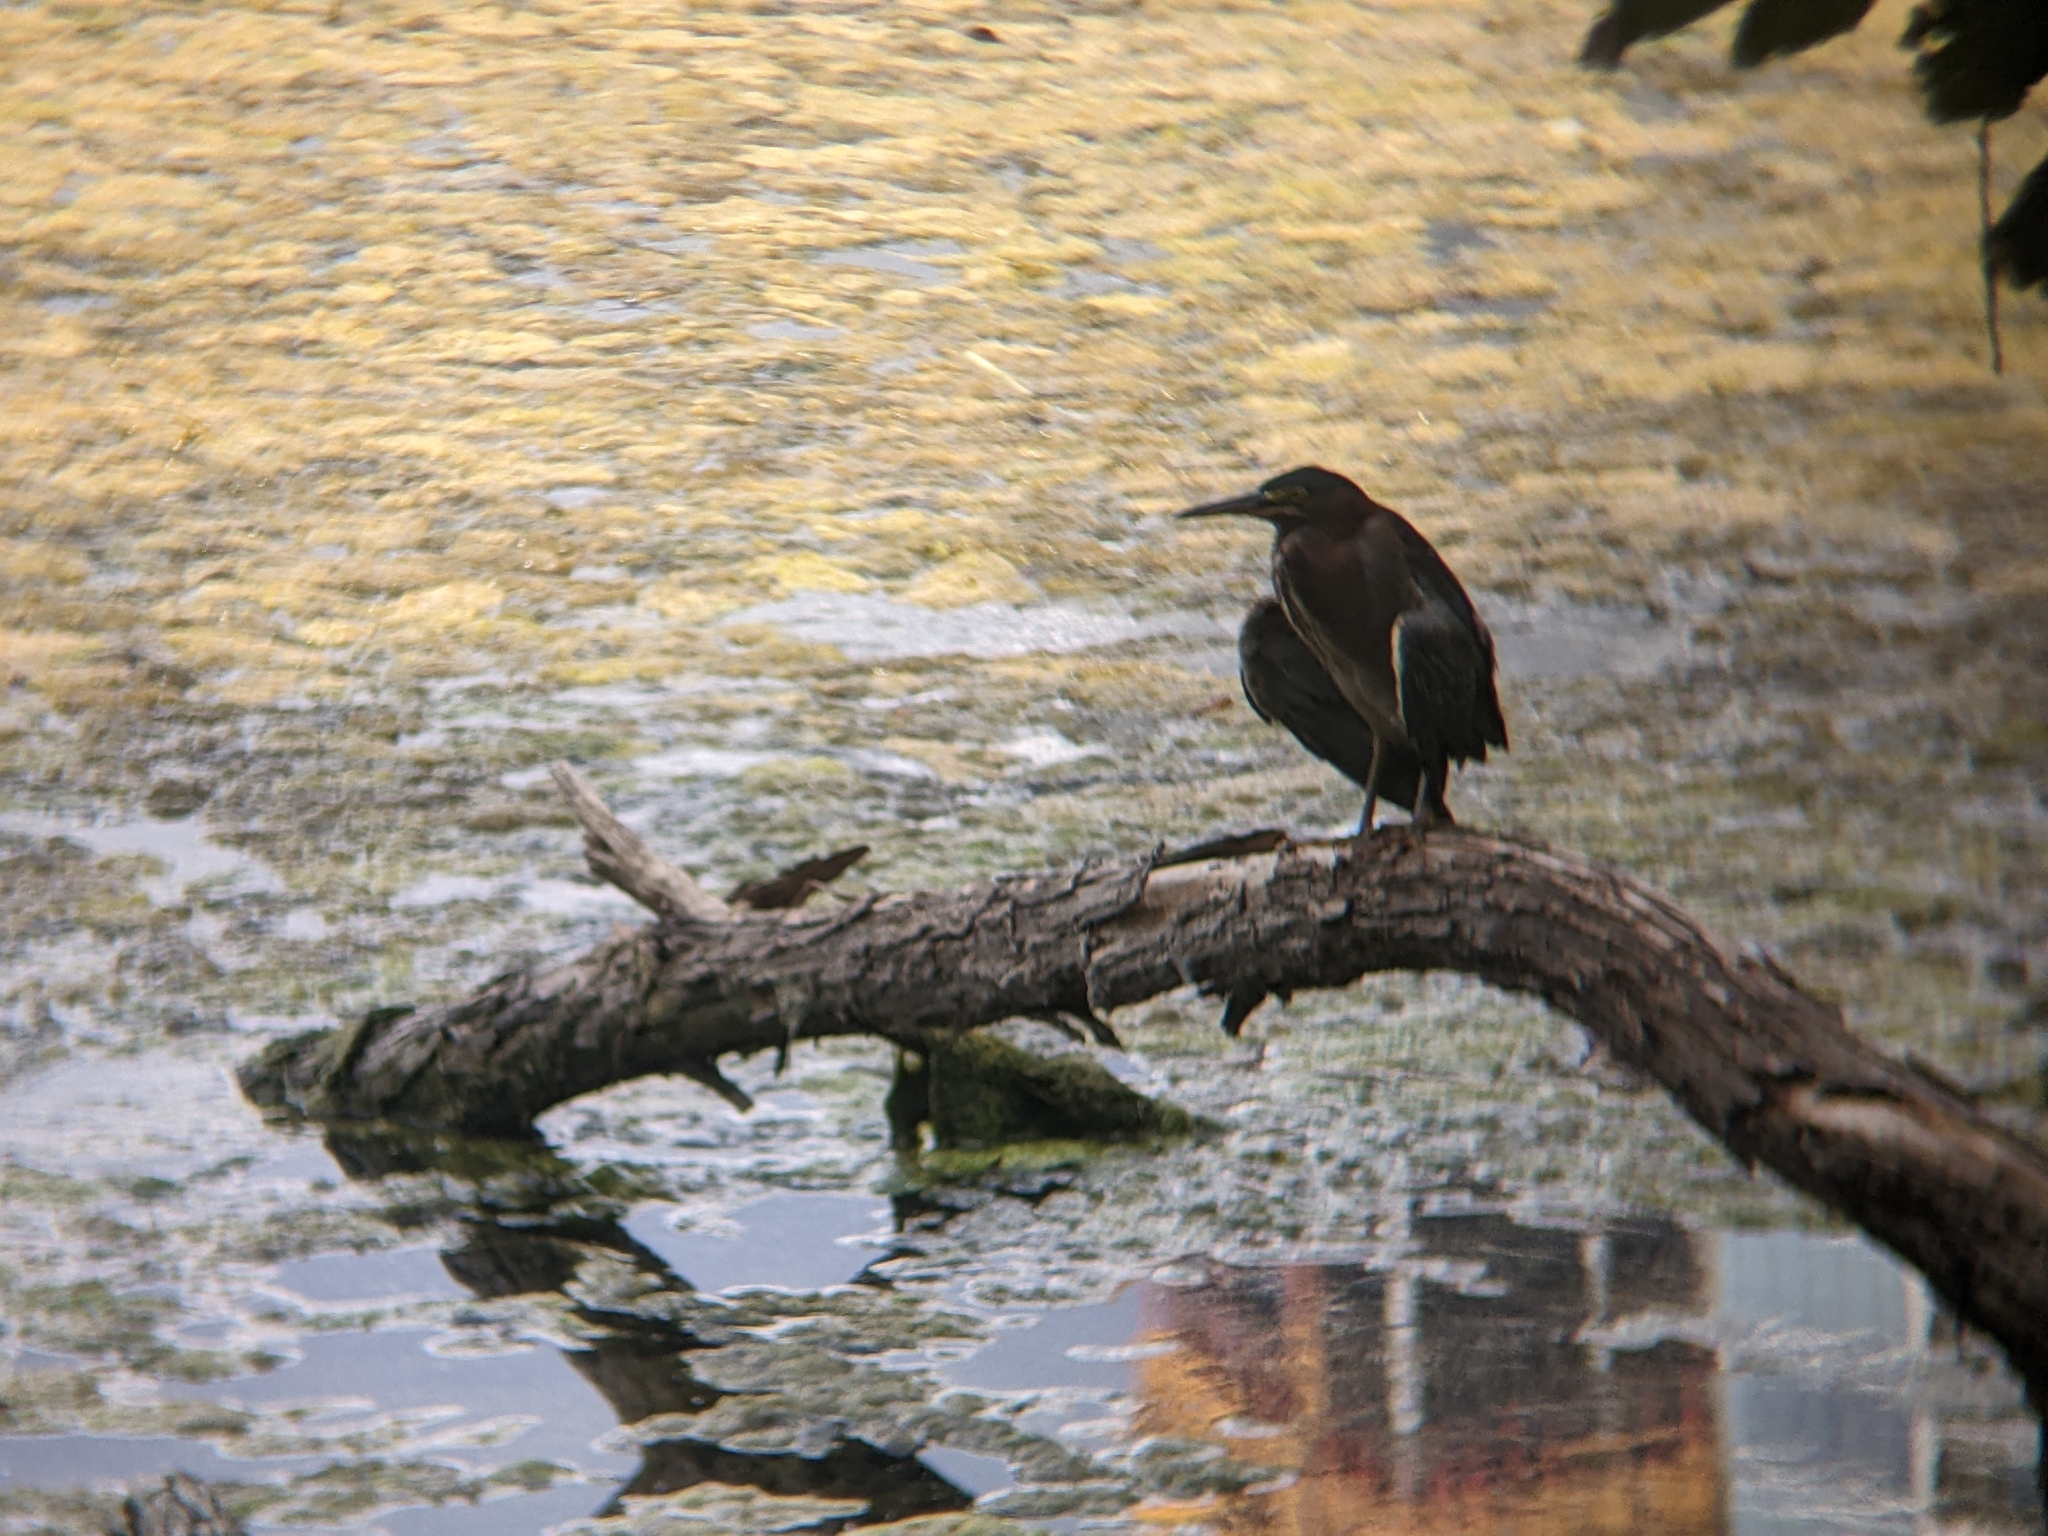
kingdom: Animalia
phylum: Chordata
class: Aves
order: Pelecaniformes
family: Ardeidae
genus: Butorides
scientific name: Butorides virescens
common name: Green heron
